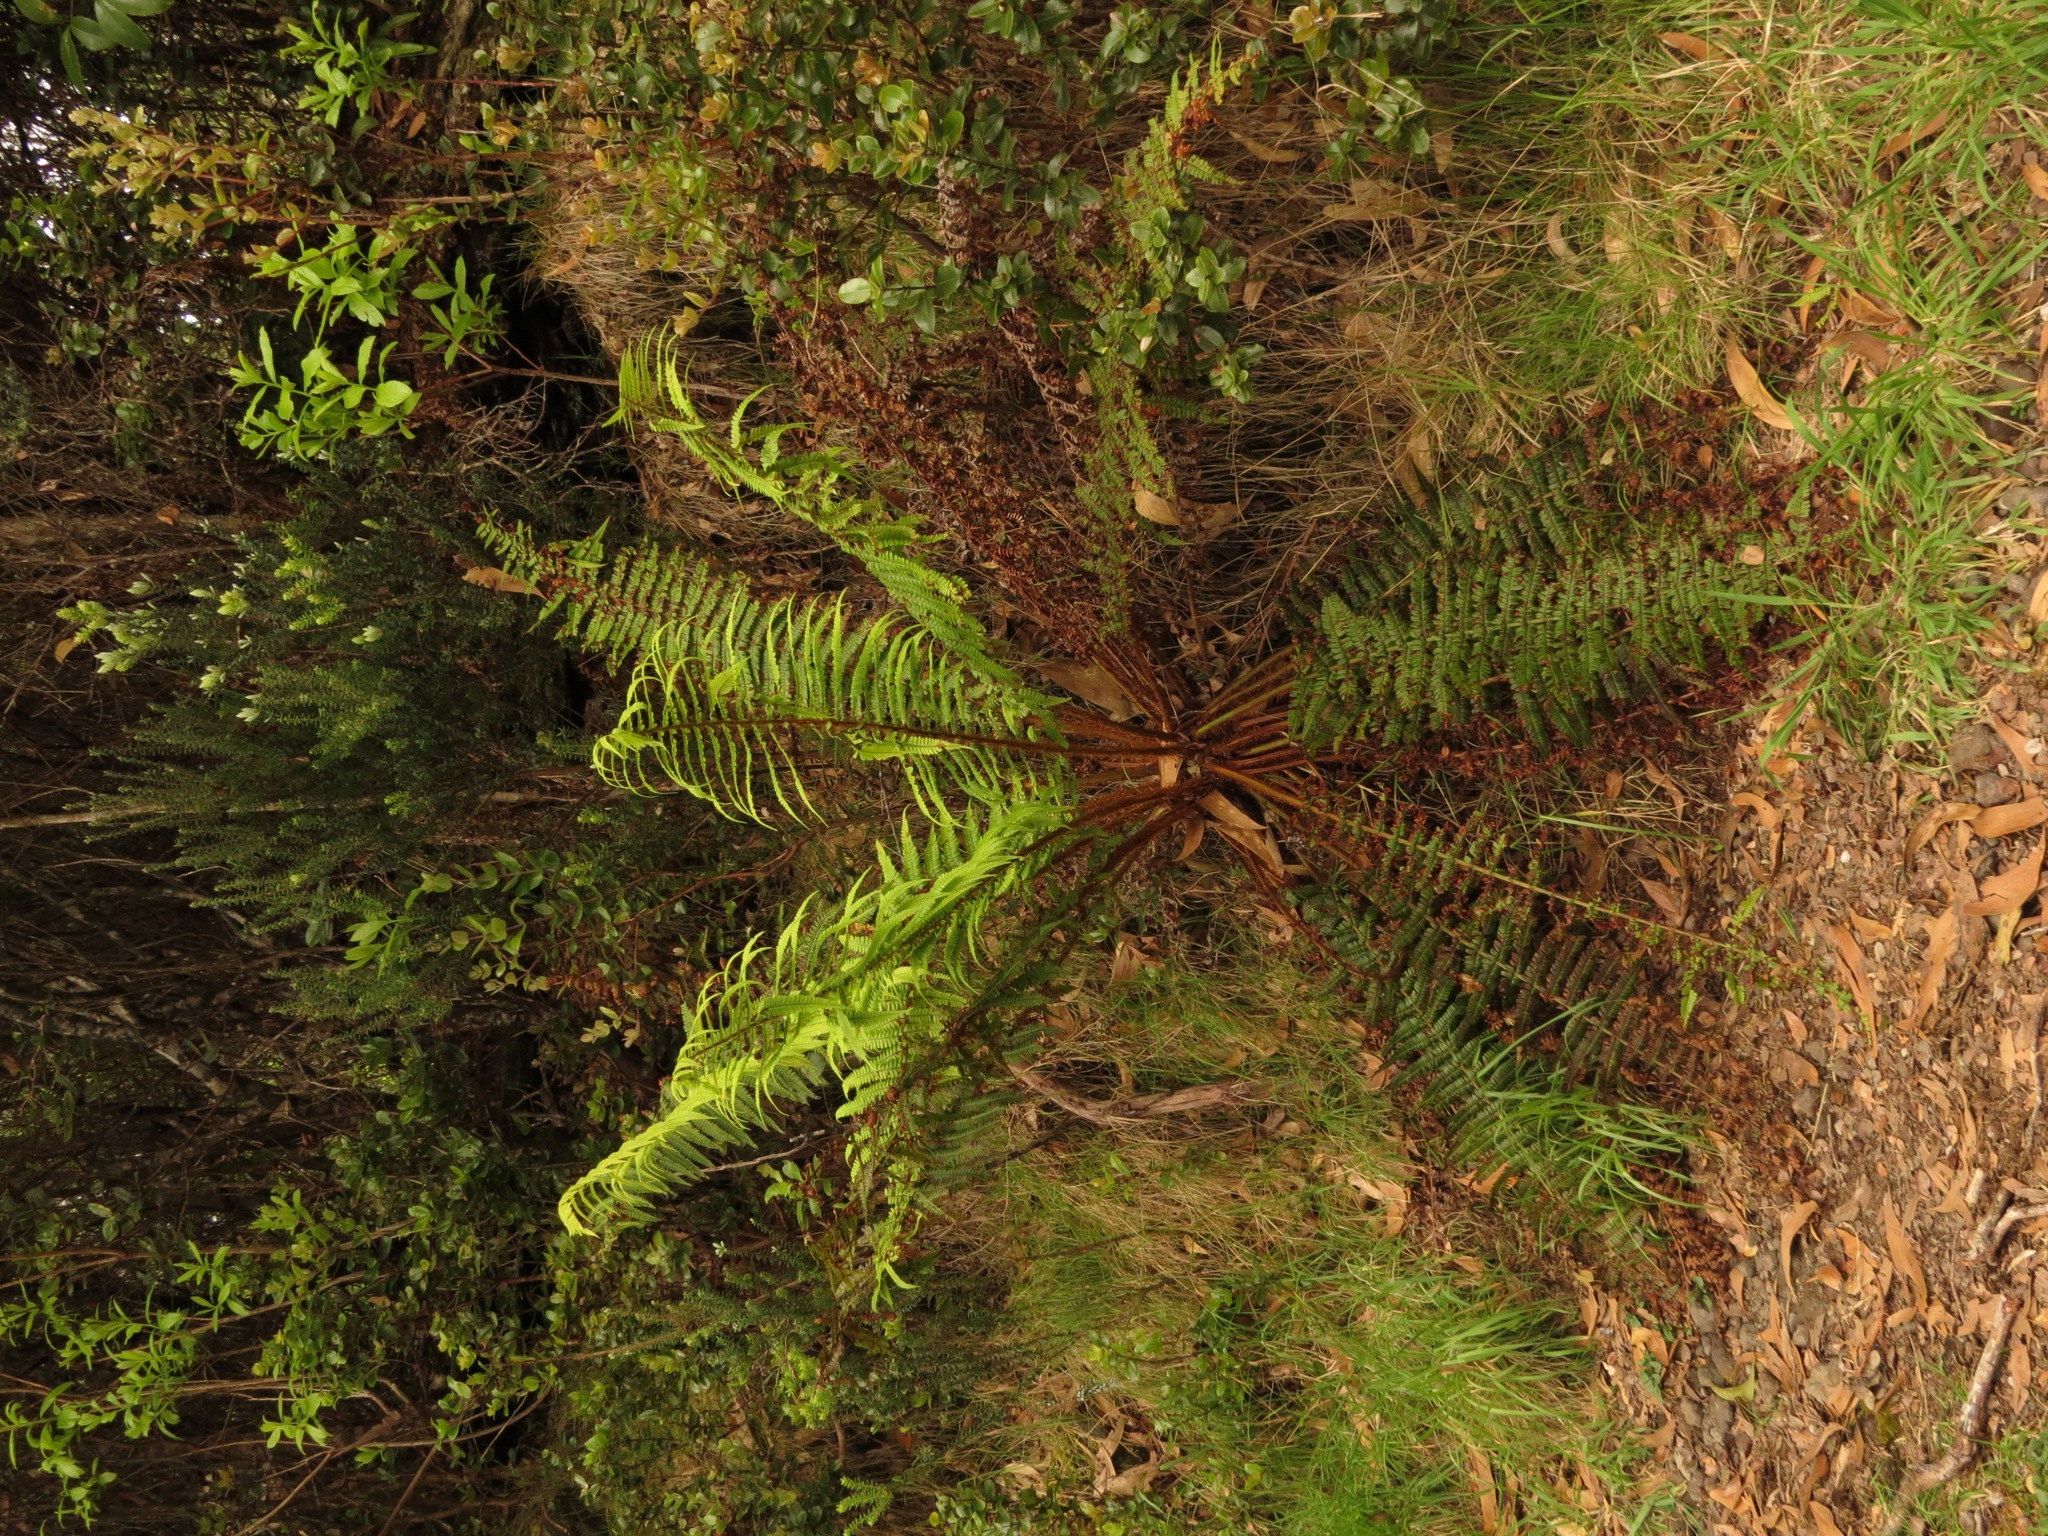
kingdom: Plantae
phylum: Tracheophyta
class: Polypodiopsida
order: Polypodiales
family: Dryopteridaceae
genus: Dryopteris
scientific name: Dryopteris wallichiana
